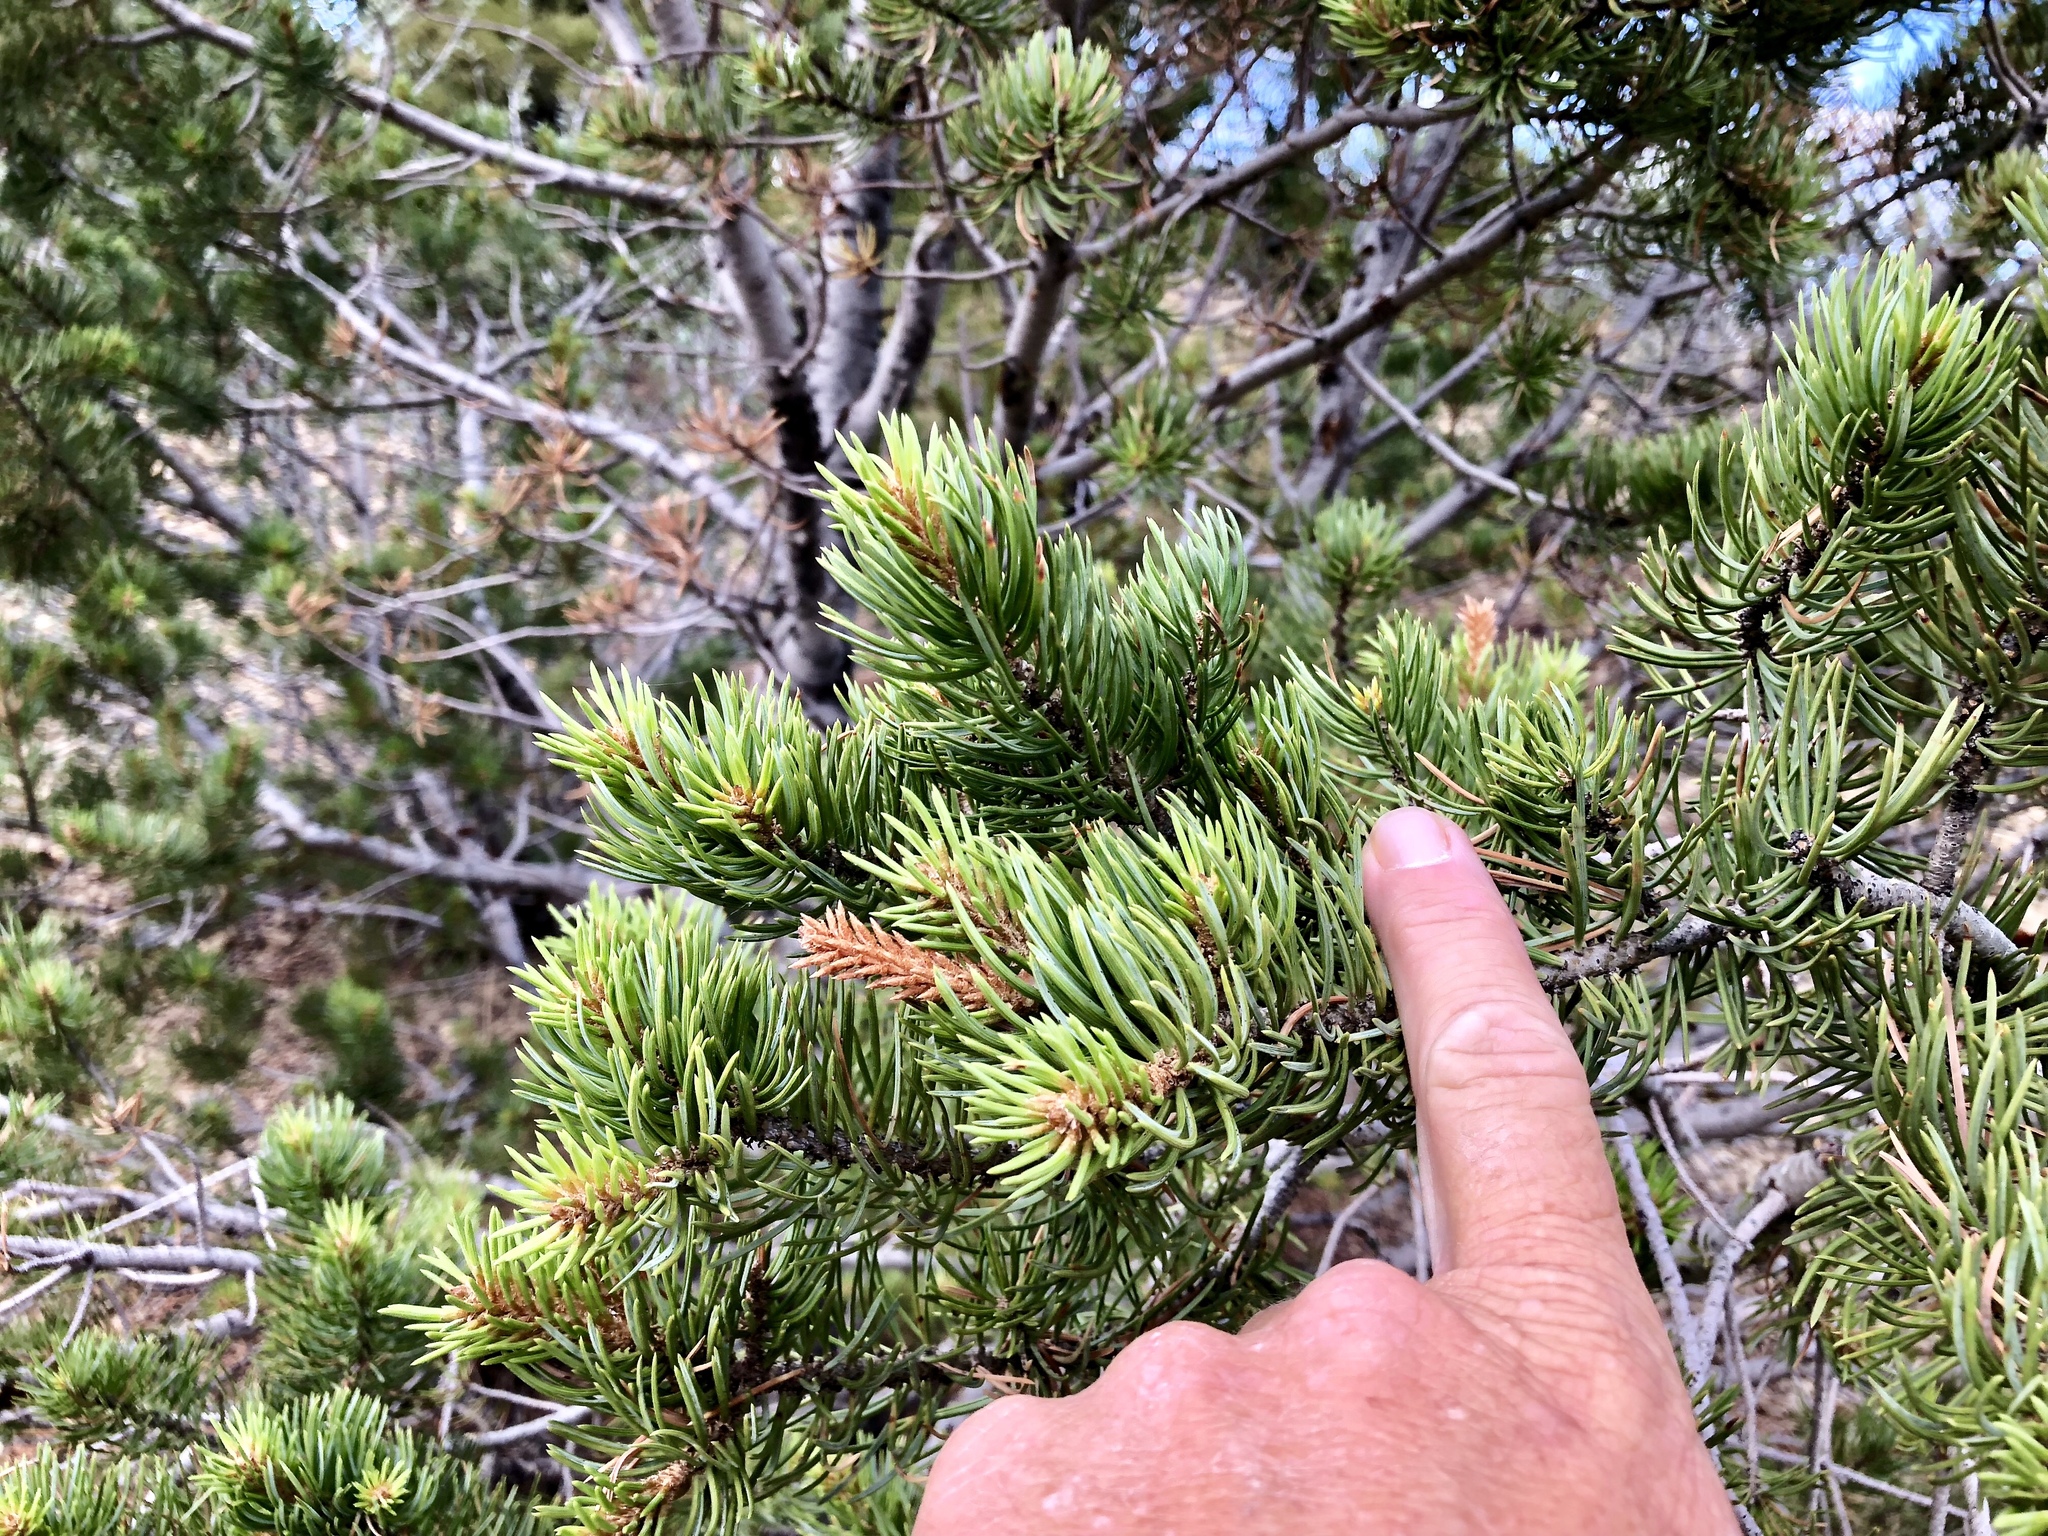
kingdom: Plantae
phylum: Tracheophyta
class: Pinopsida
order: Pinales
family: Pinaceae
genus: Pinus
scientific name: Pinus edulis
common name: Colorado pinyon
